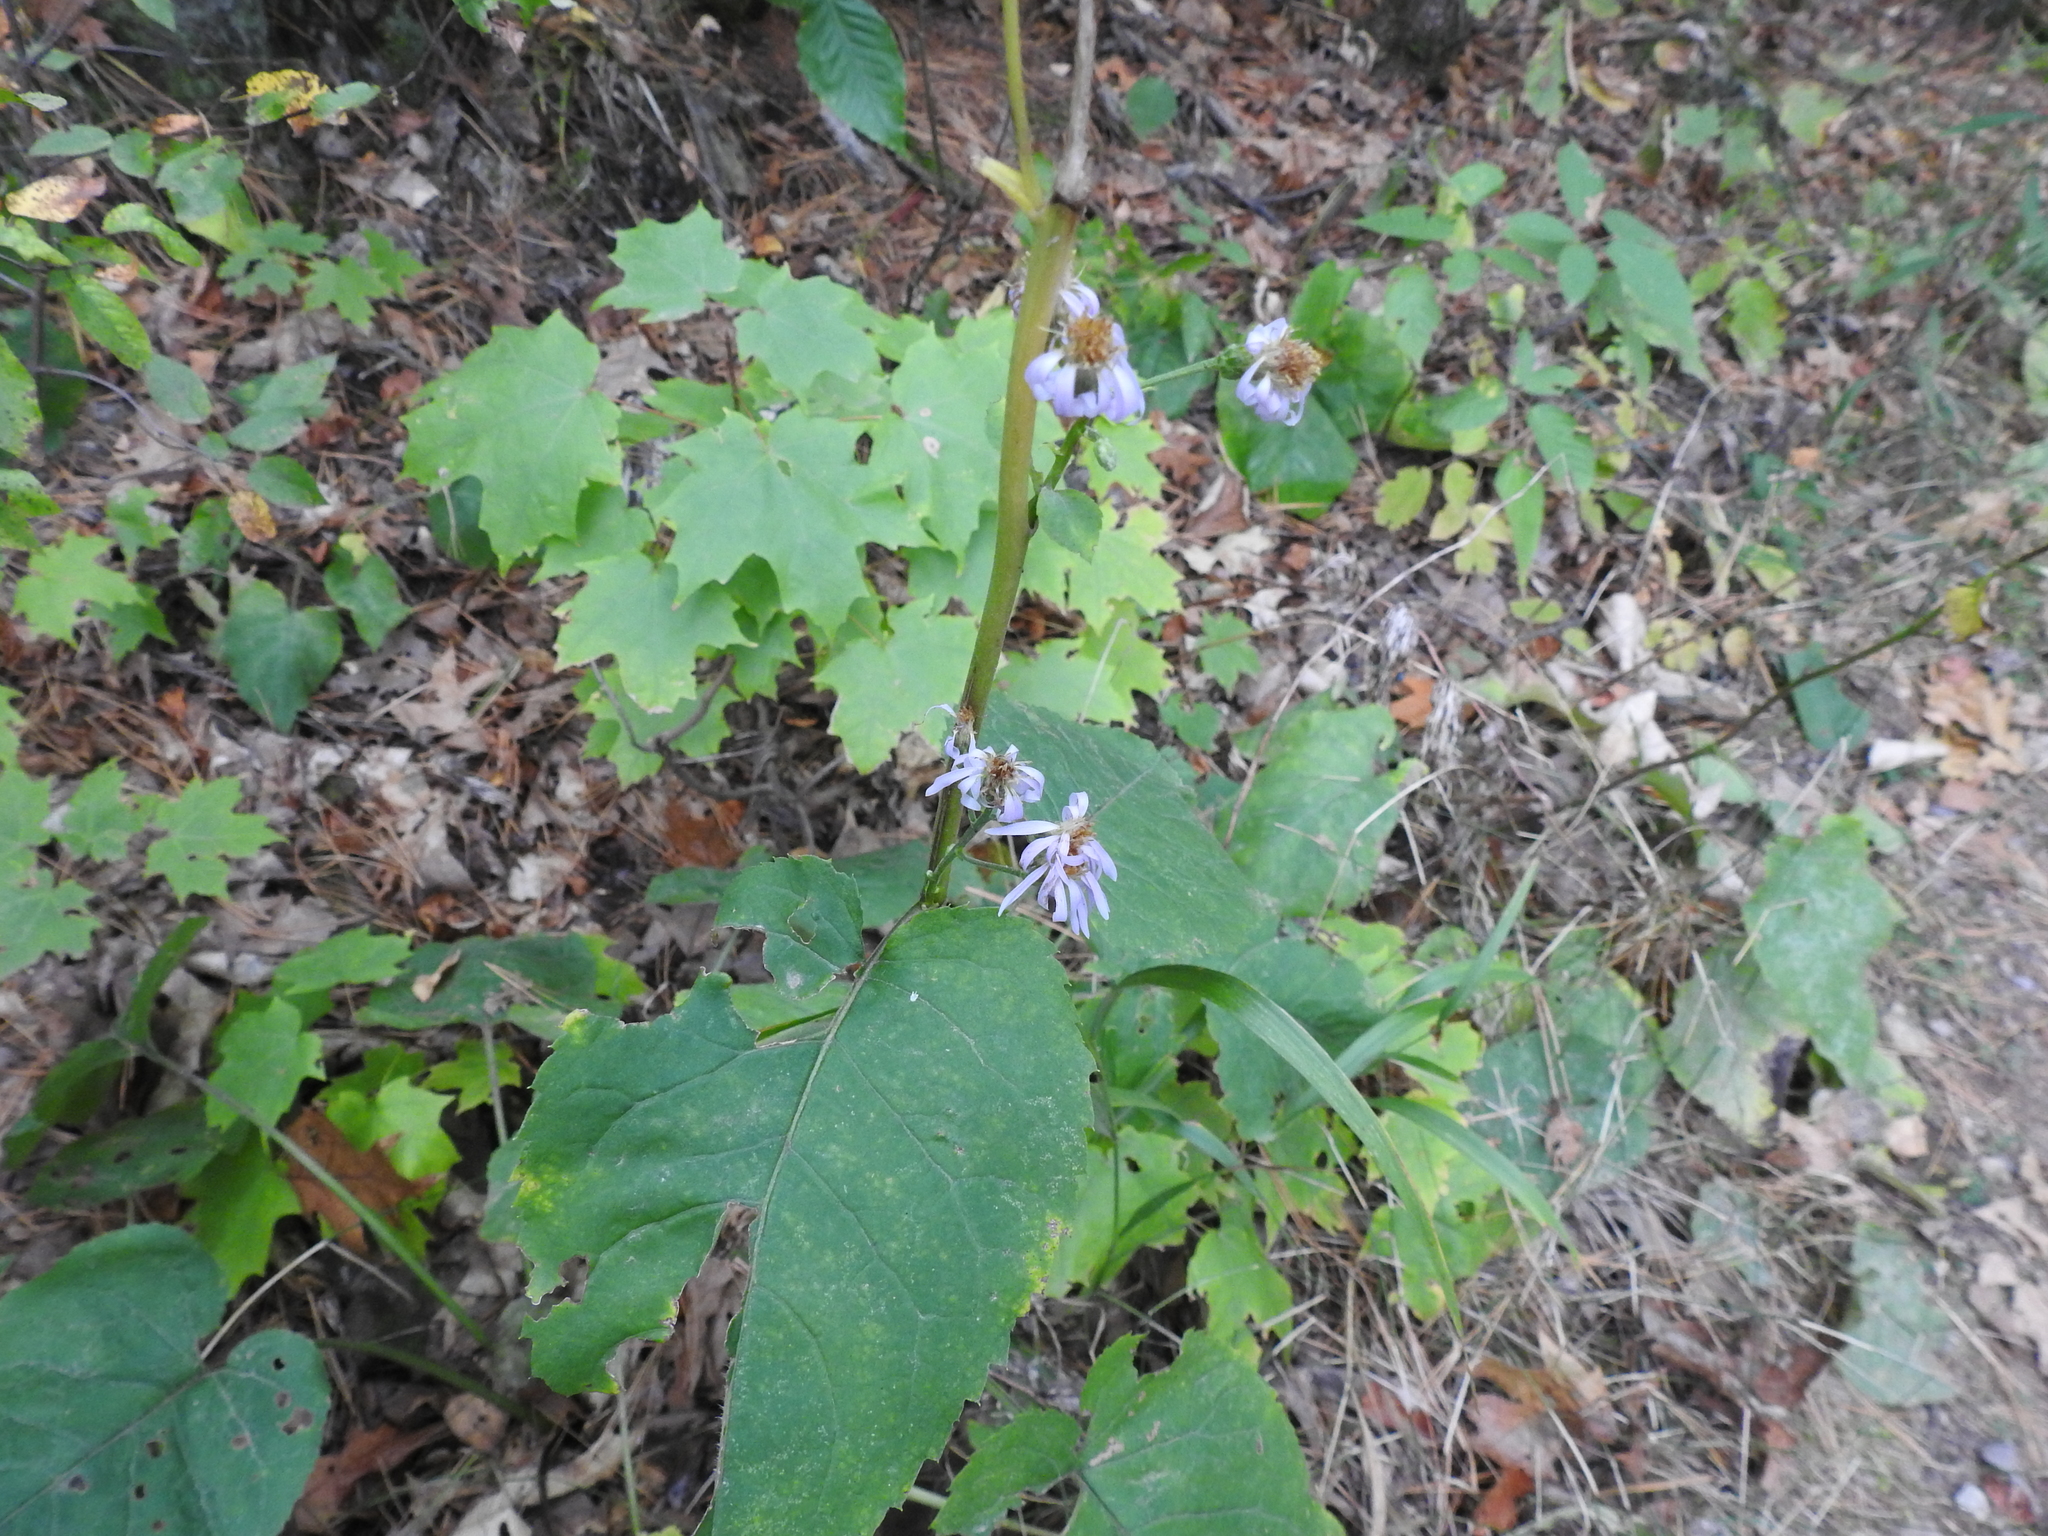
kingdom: Plantae
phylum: Tracheophyta
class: Magnoliopsida
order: Asterales
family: Asteraceae
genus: Eurybia
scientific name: Eurybia macrophylla
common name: Big-leaved aster
